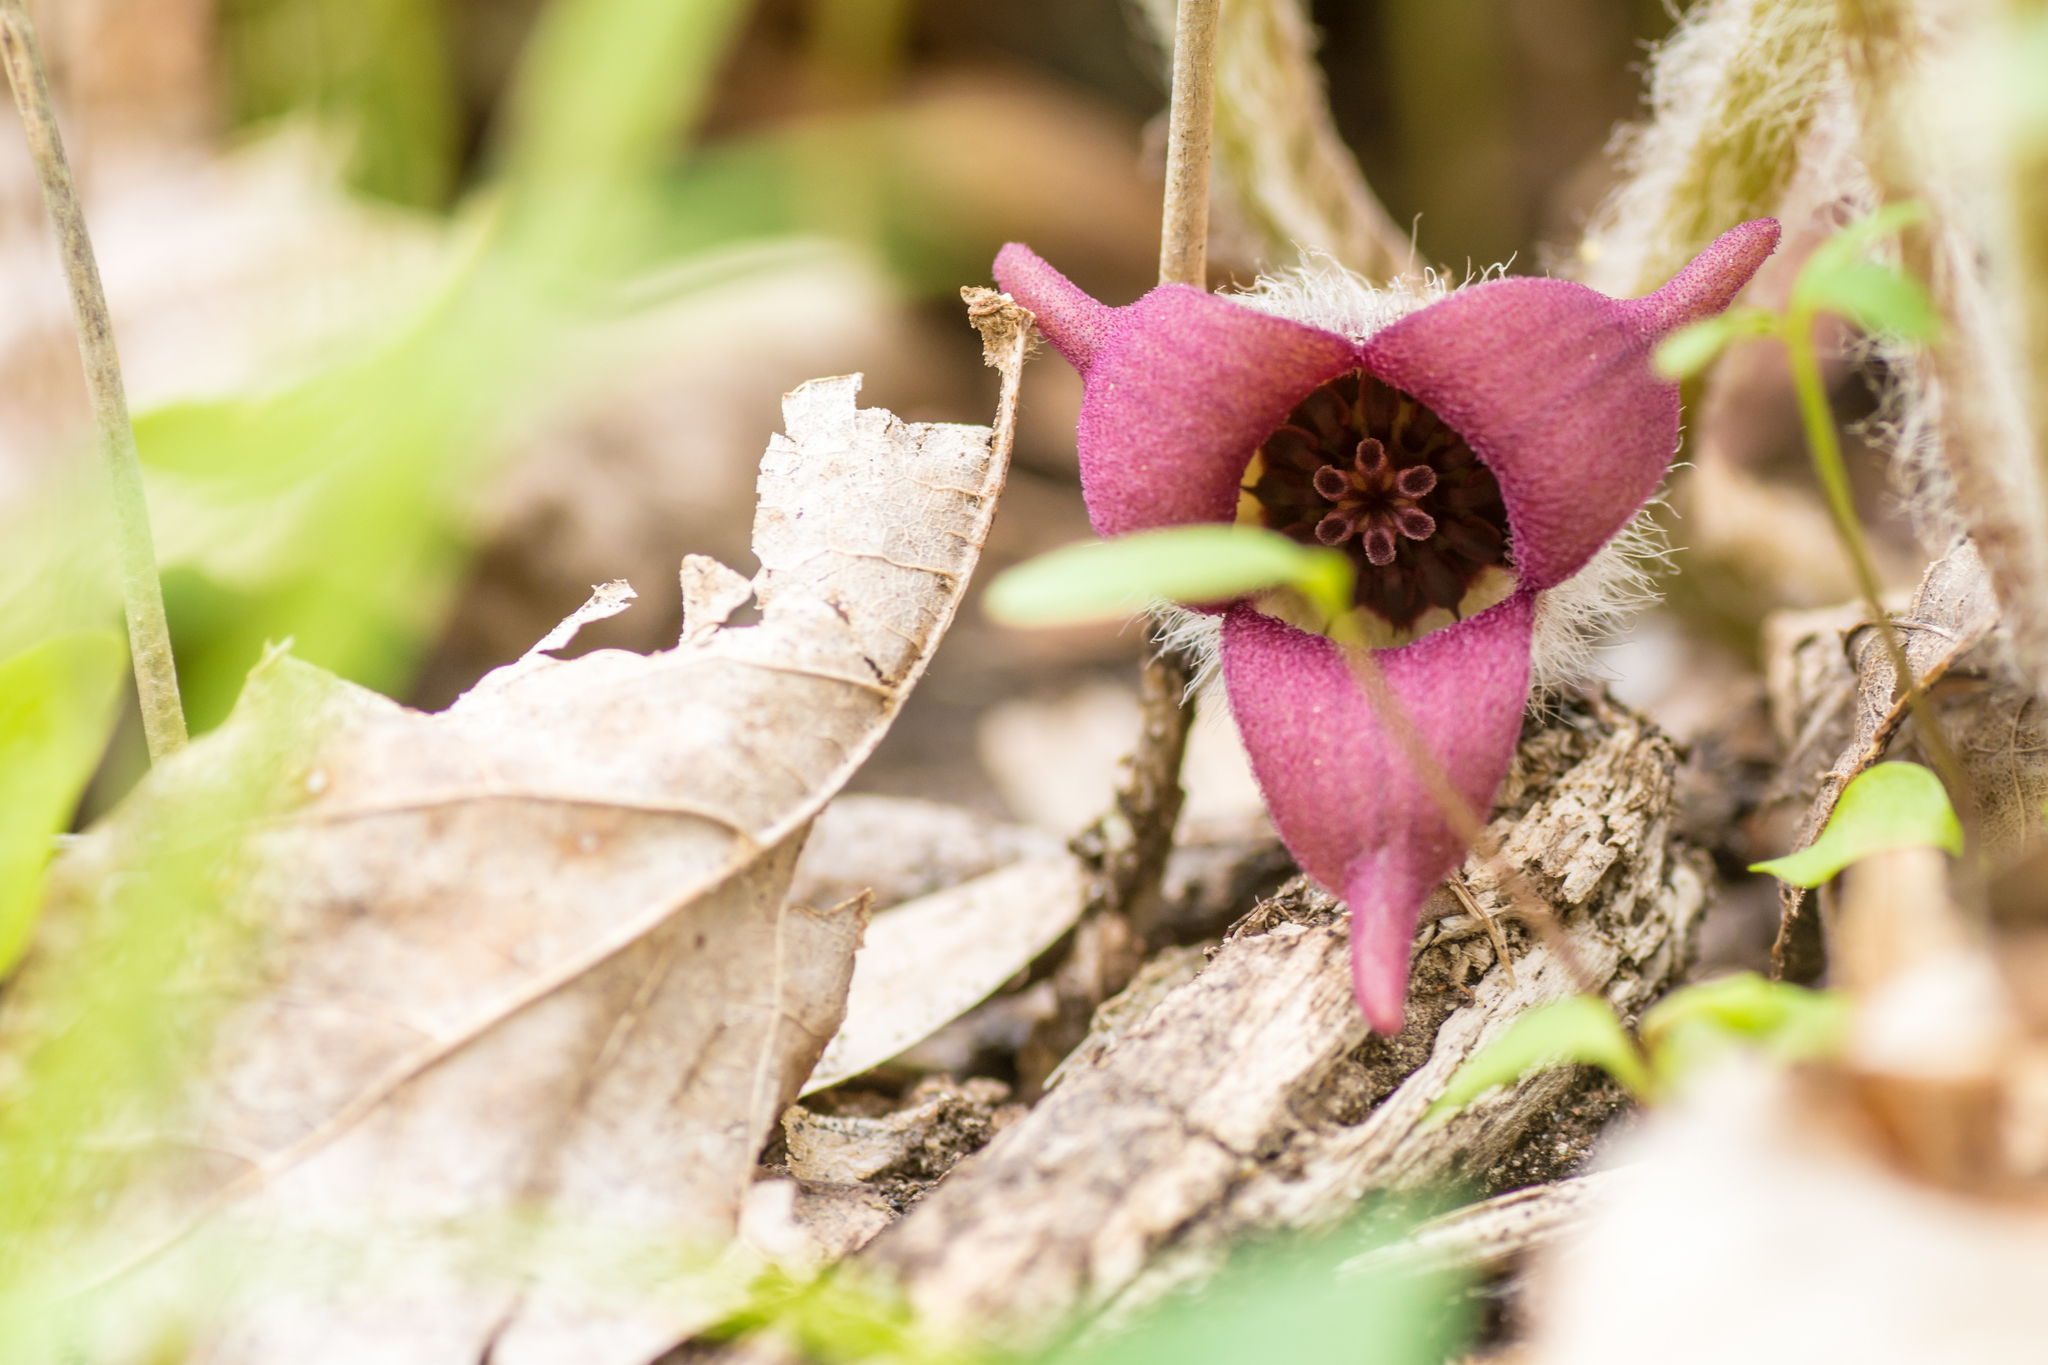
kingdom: Plantae
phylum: Tracheophyta
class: Magnoliopsida
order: Piperales
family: Aristolochiaceae
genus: Asarum
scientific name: Asarum canadense
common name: Wild ginger
